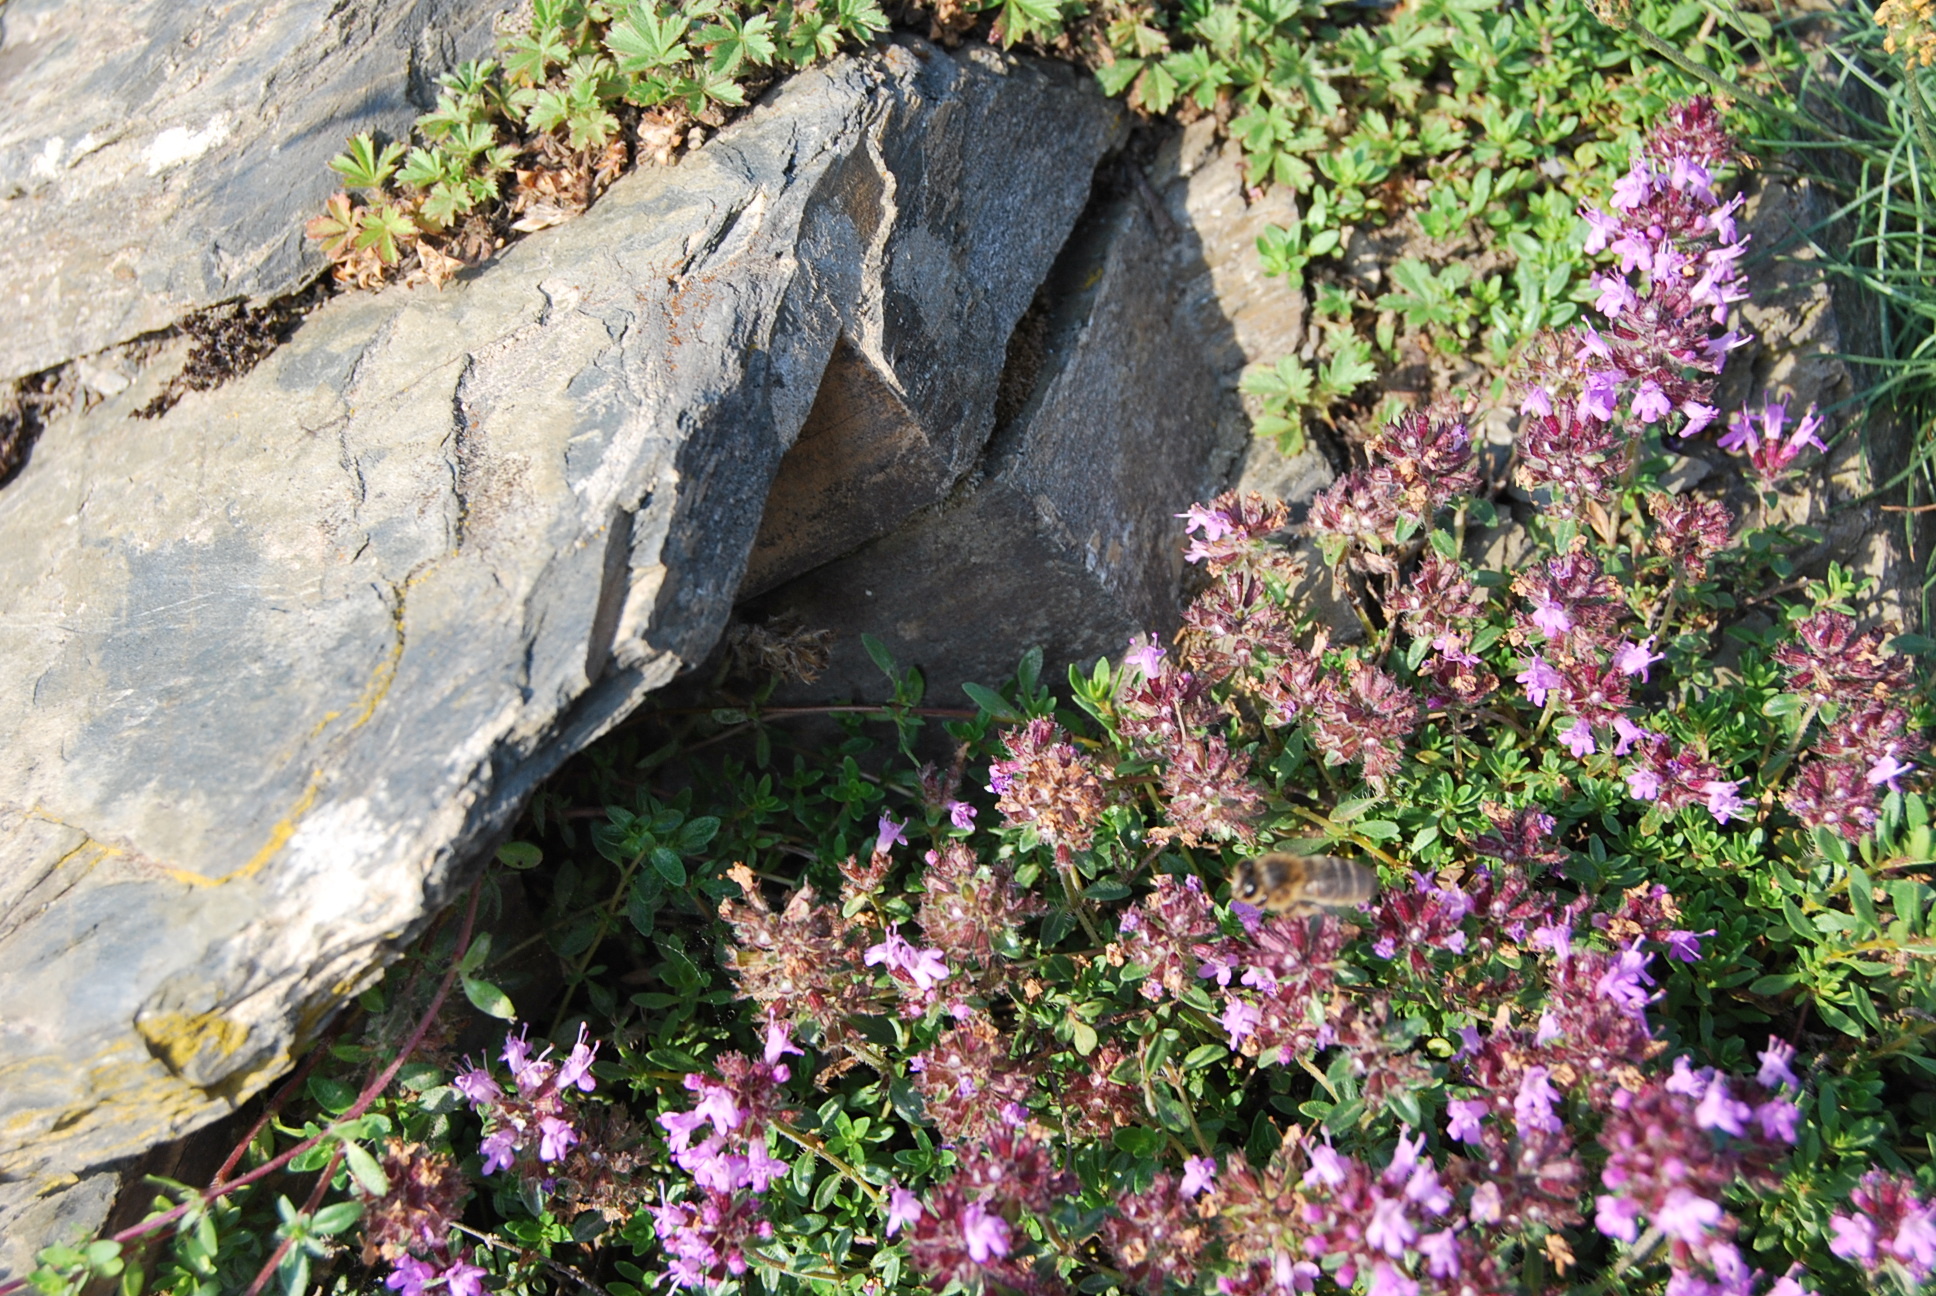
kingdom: Plantae
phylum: Tracheophyta
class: Magnoliopsida
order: Lamiales
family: Lamiaceae
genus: Thymus
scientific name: Thymus pulegioides
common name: Large thyme
